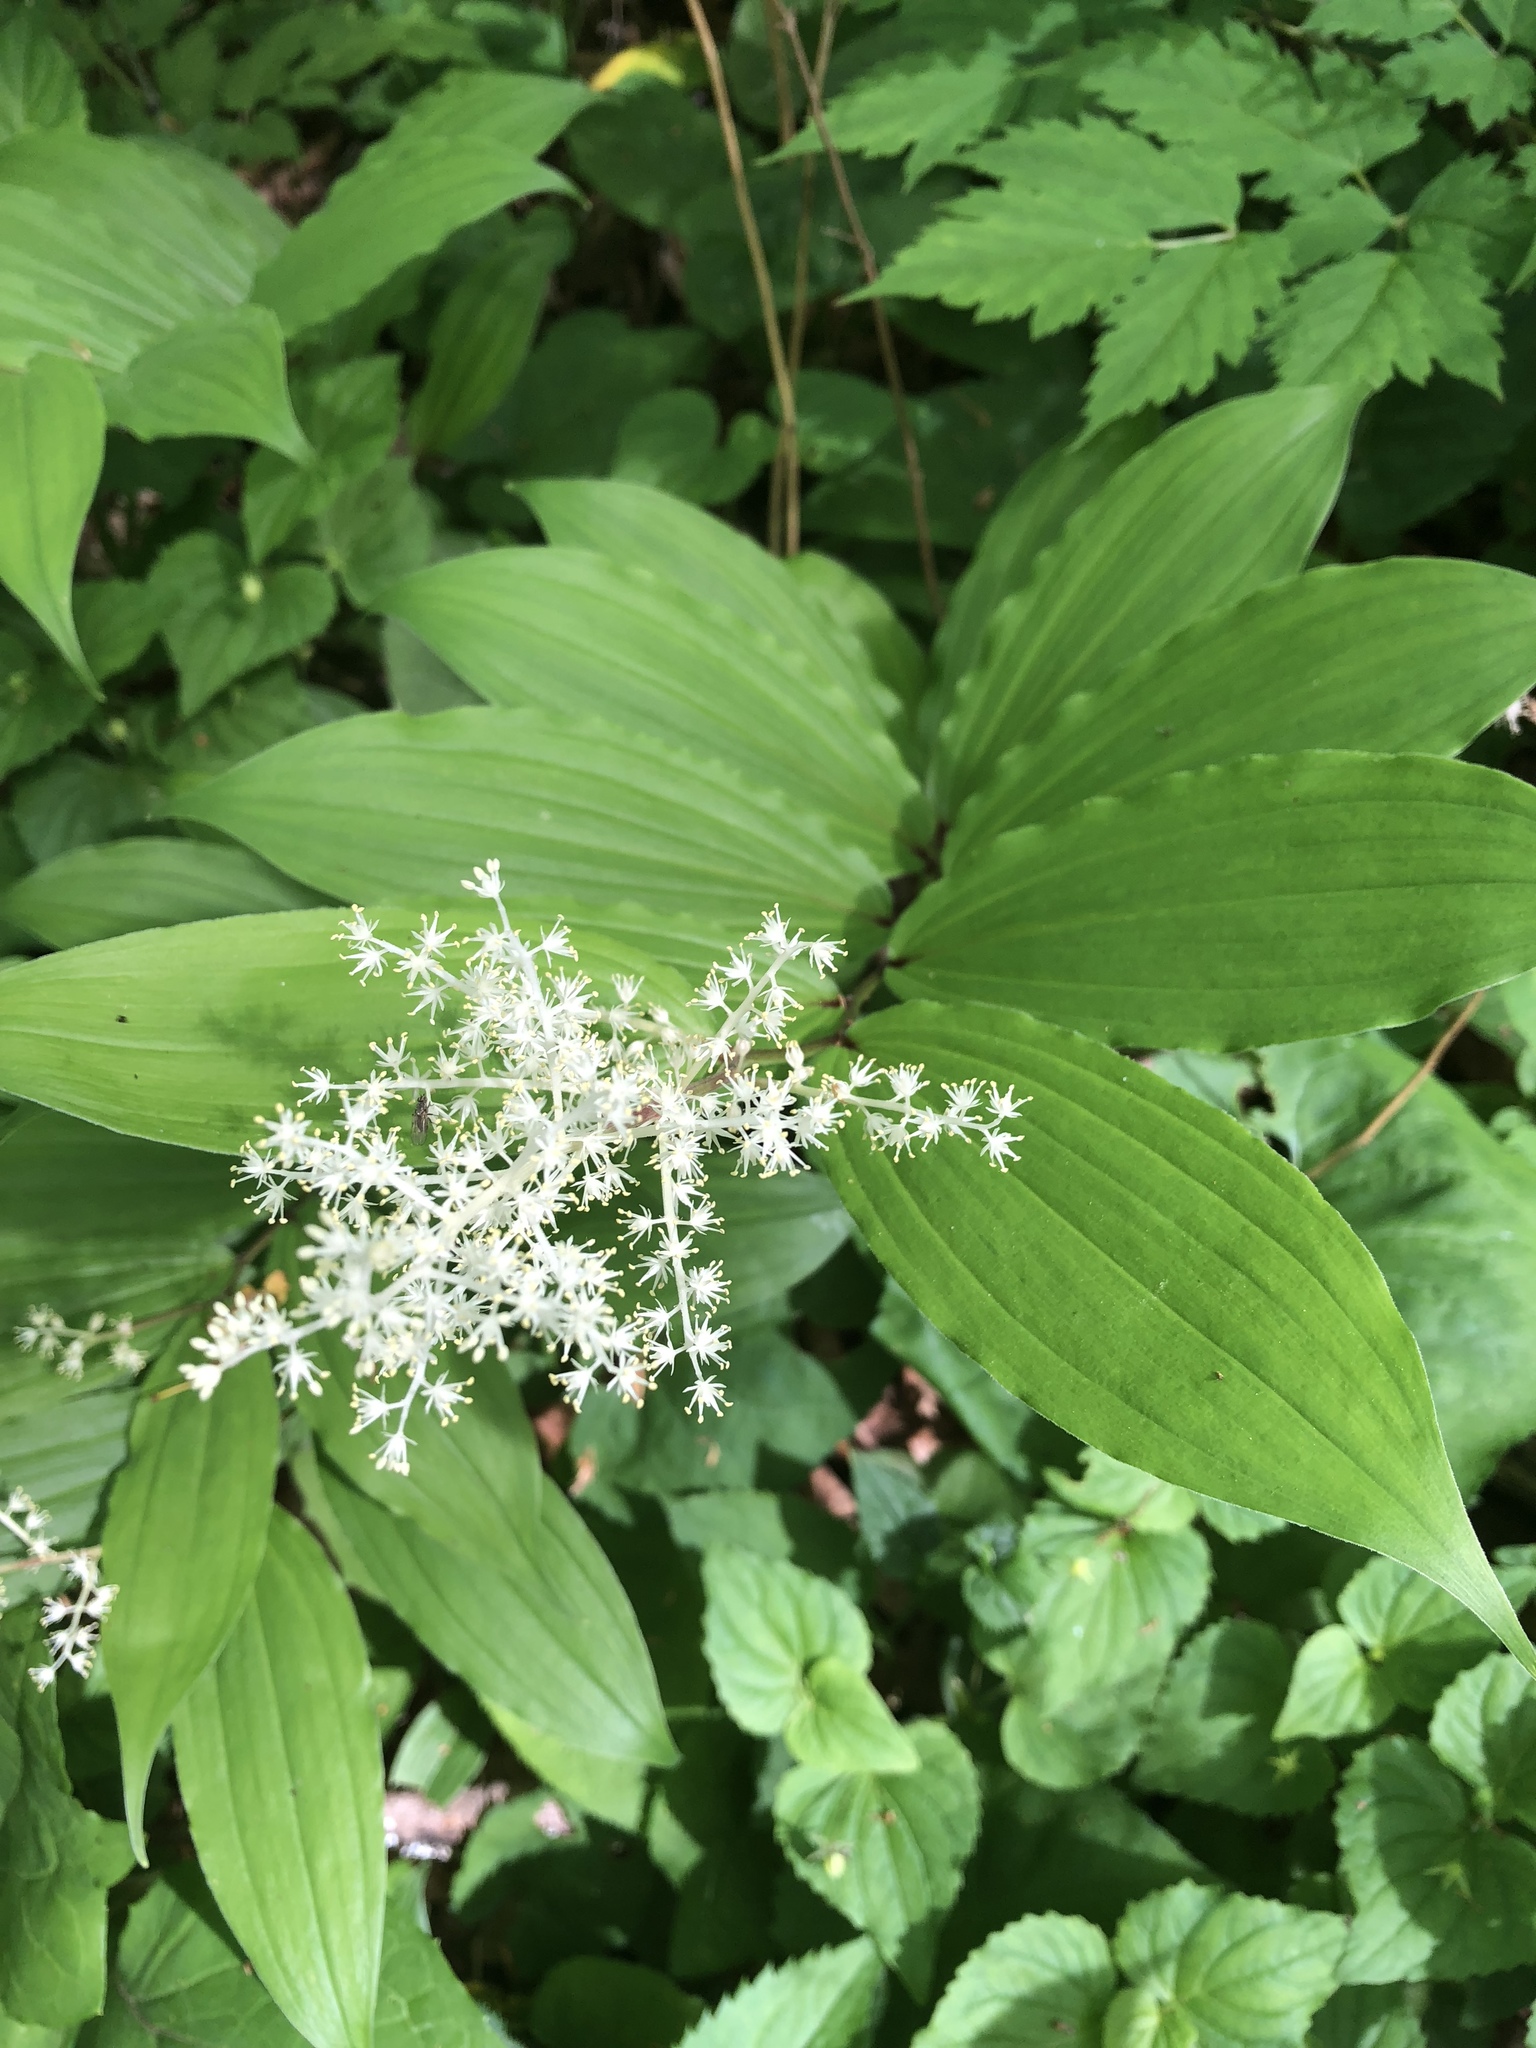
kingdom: Plantae
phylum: Tracheophyta
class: Liliopsida
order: Asparagales
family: Asparagaceae
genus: Maianthemum
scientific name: Maianthemum racemosum
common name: False spikenard
